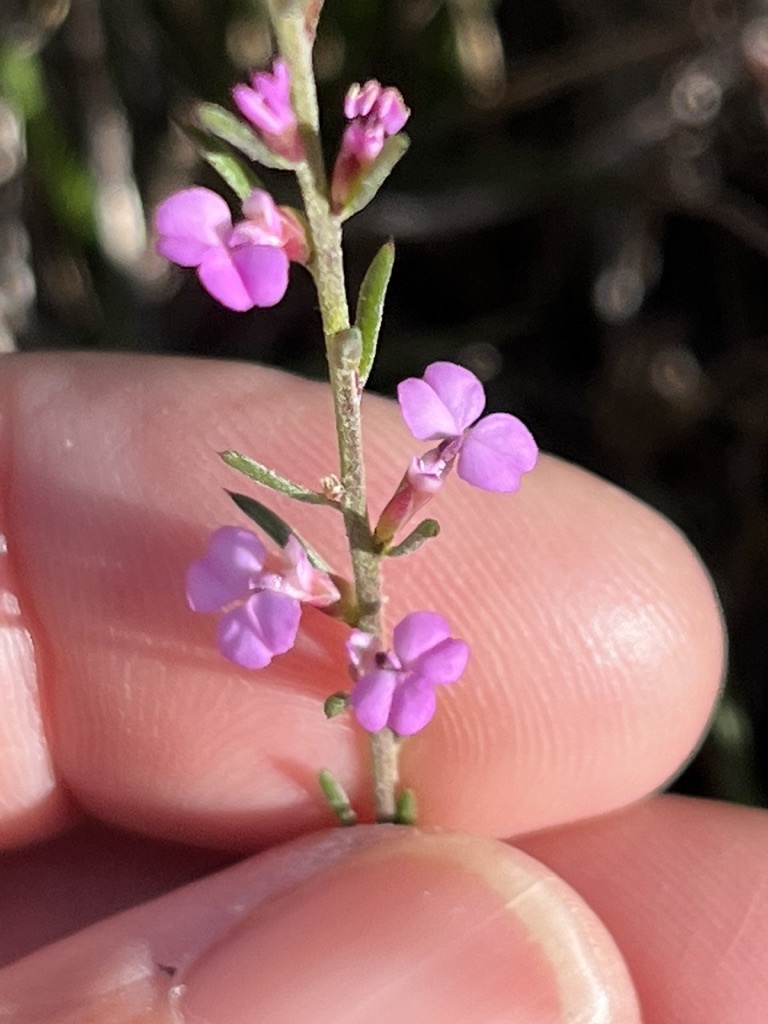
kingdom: Plantae
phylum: Tracheophyta
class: Magnoliopsida
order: Fabales
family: Polygalaceae
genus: Muraltia
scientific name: Muraltia ericoides
